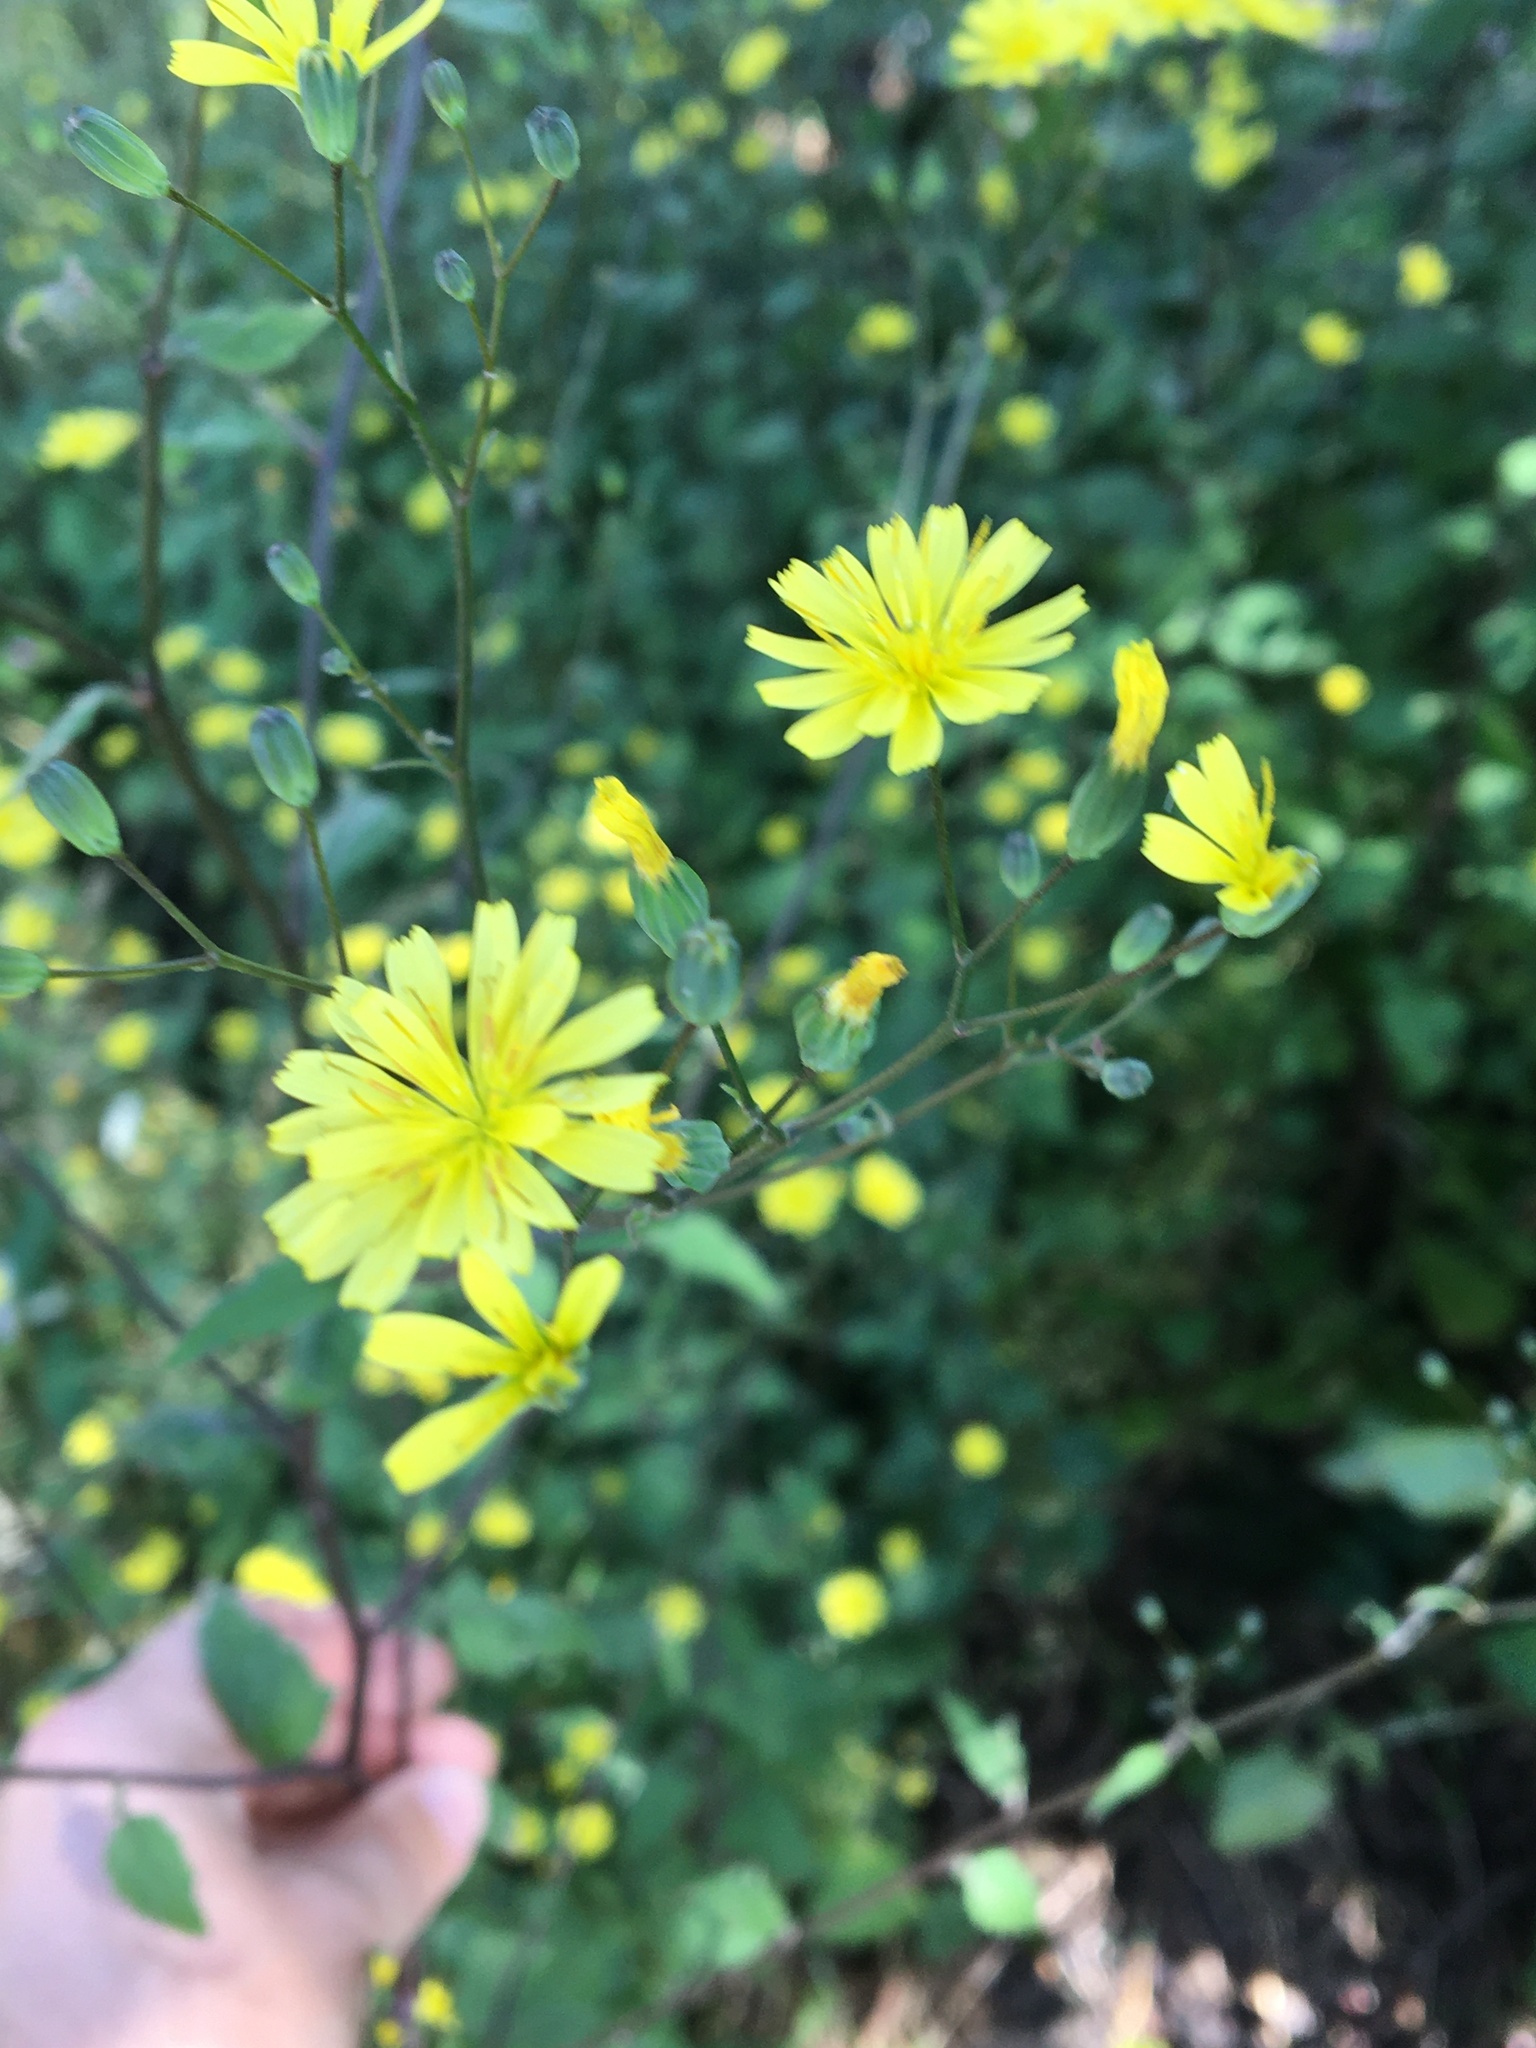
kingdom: Plantae
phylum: Tracheophyta
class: Magnoliopsida
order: Asterales
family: Asteraceae
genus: Lapsana
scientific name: Lapsana communis
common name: Nipplewort
